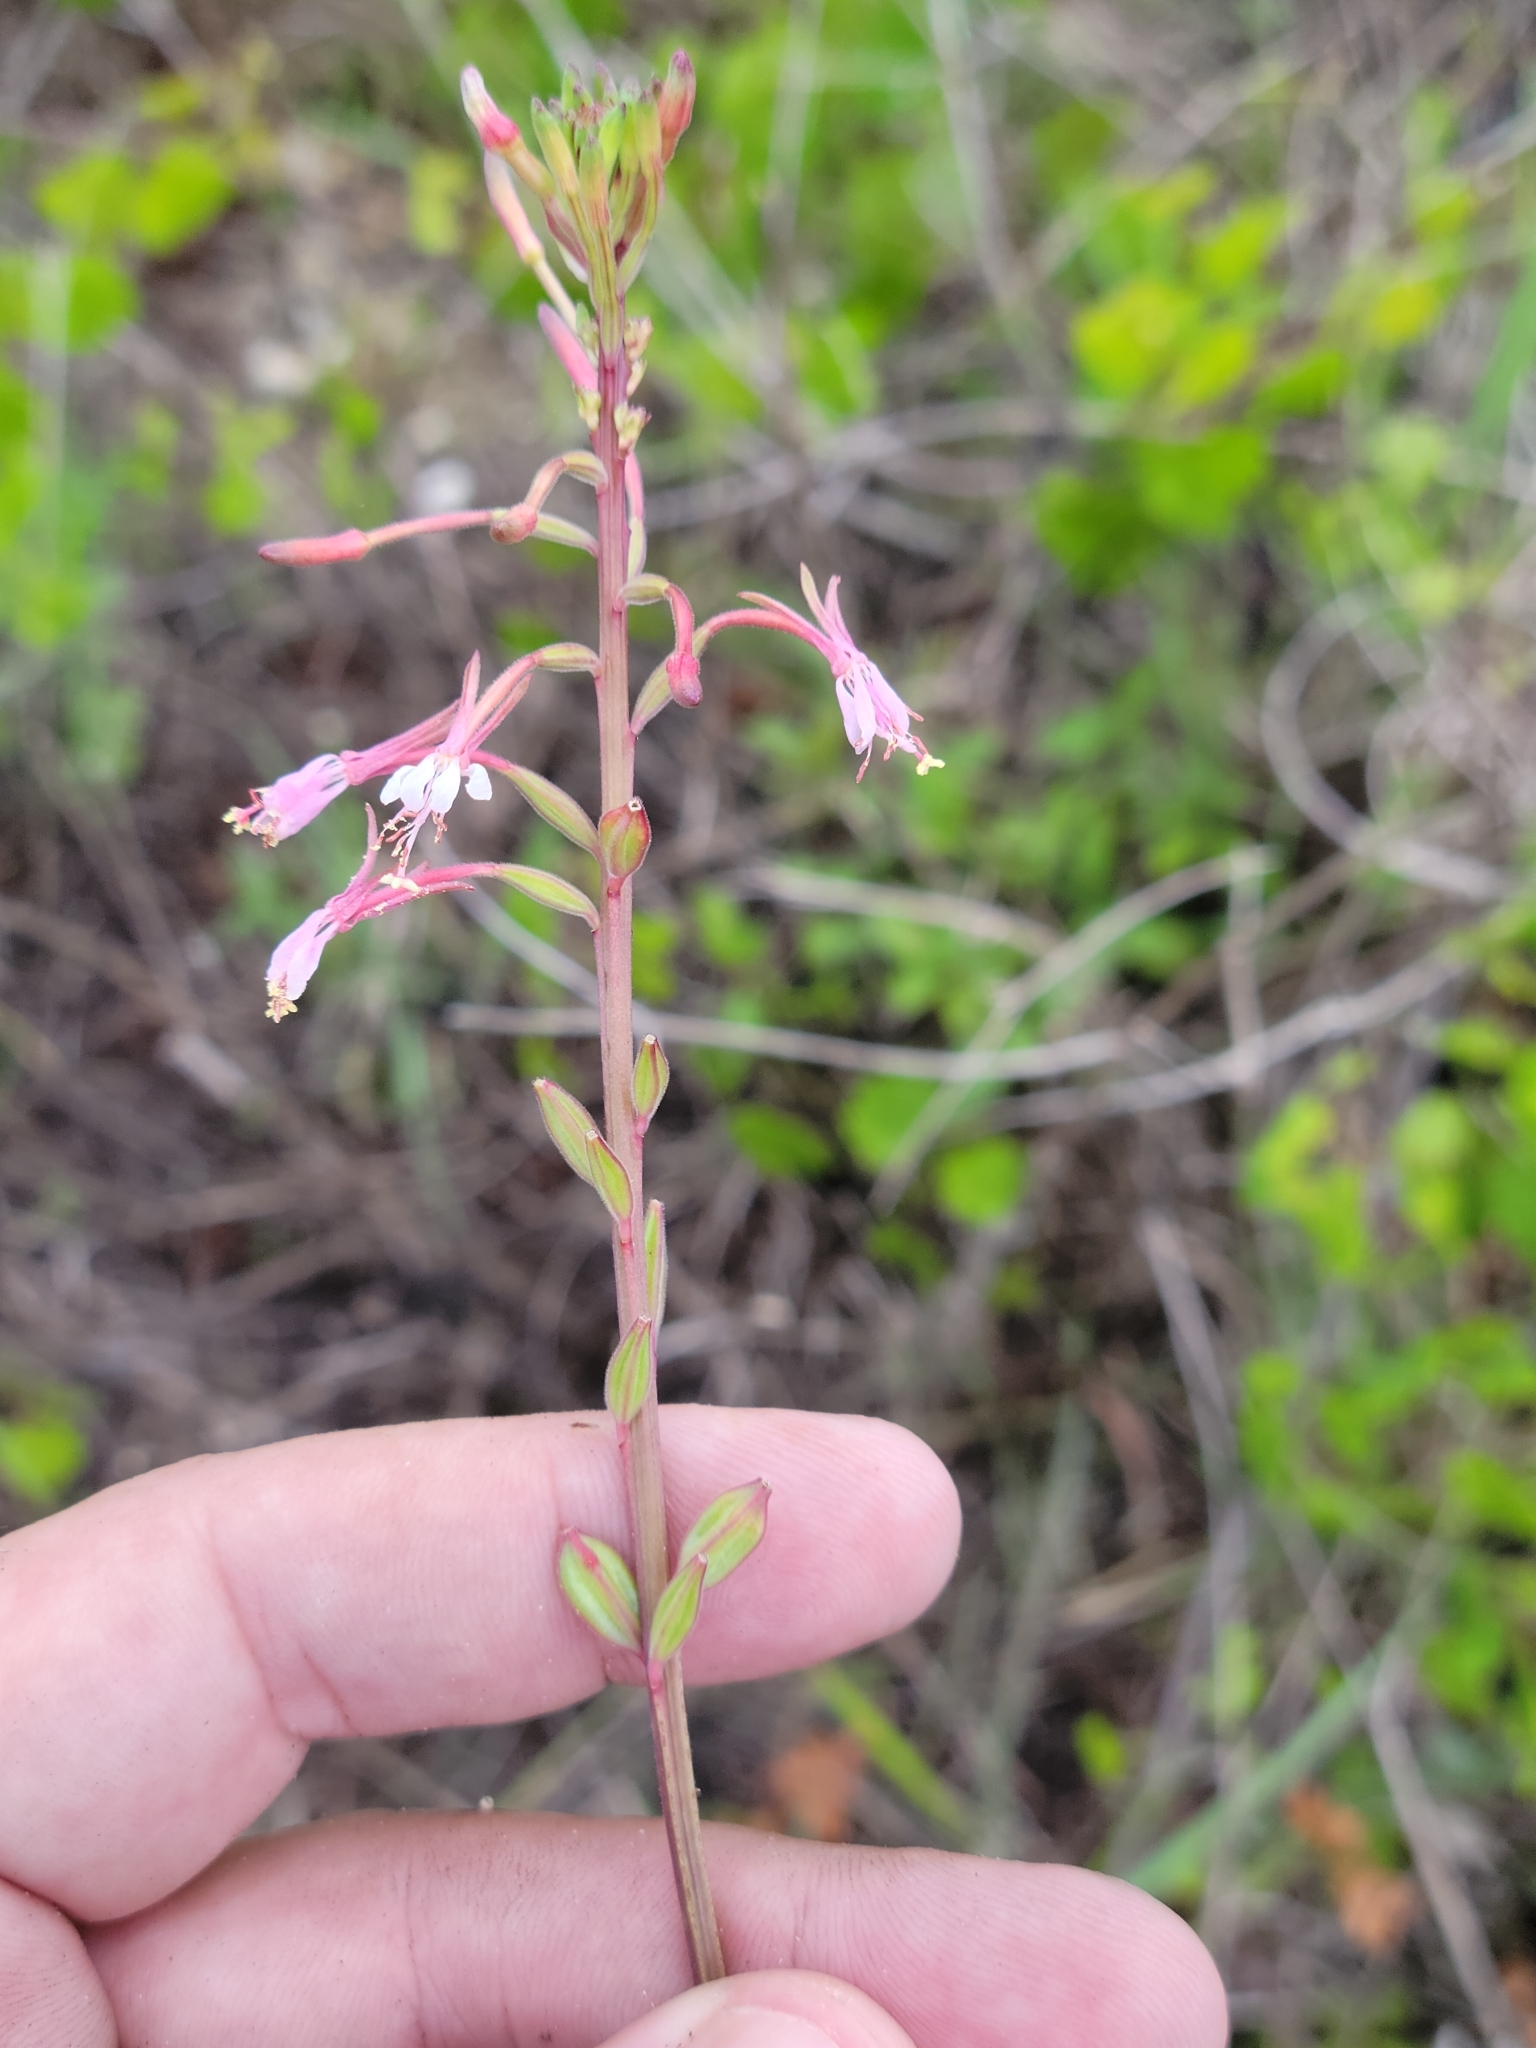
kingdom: Plantae
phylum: Tracheophyta
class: Magnoliopsida
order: Myrtales
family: Onagraceae
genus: Oenothera
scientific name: Oenothera simulans
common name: Southern beeblossom
